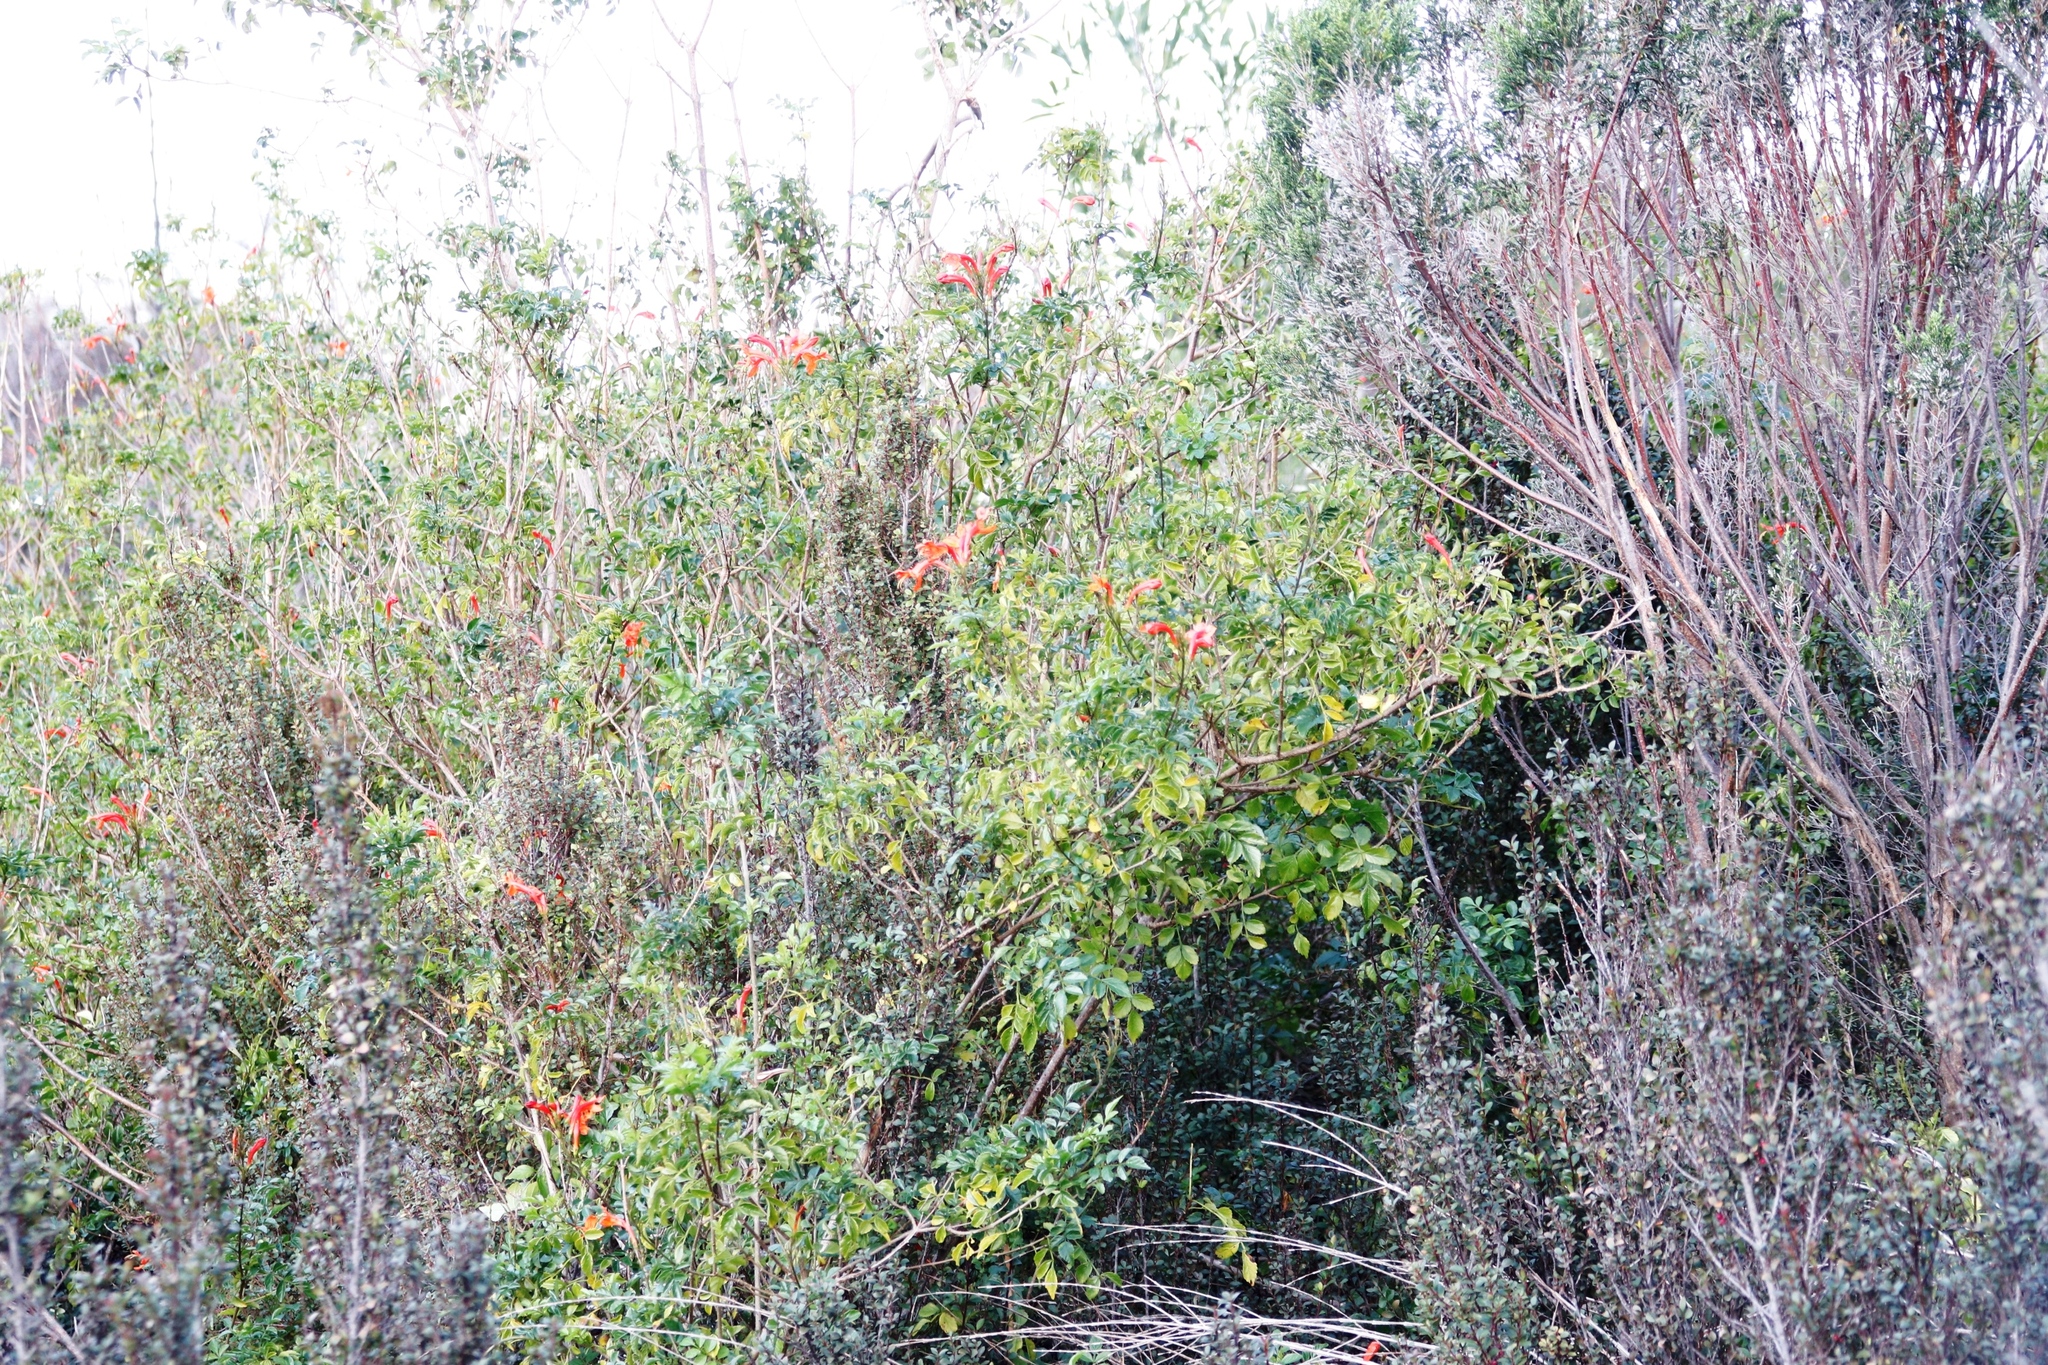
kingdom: Plantae
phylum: Tracheophyta
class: Magnoliopsida
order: Lamiales
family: Bignoniaceae
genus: Tecomaria
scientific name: Tecomaria capensis
